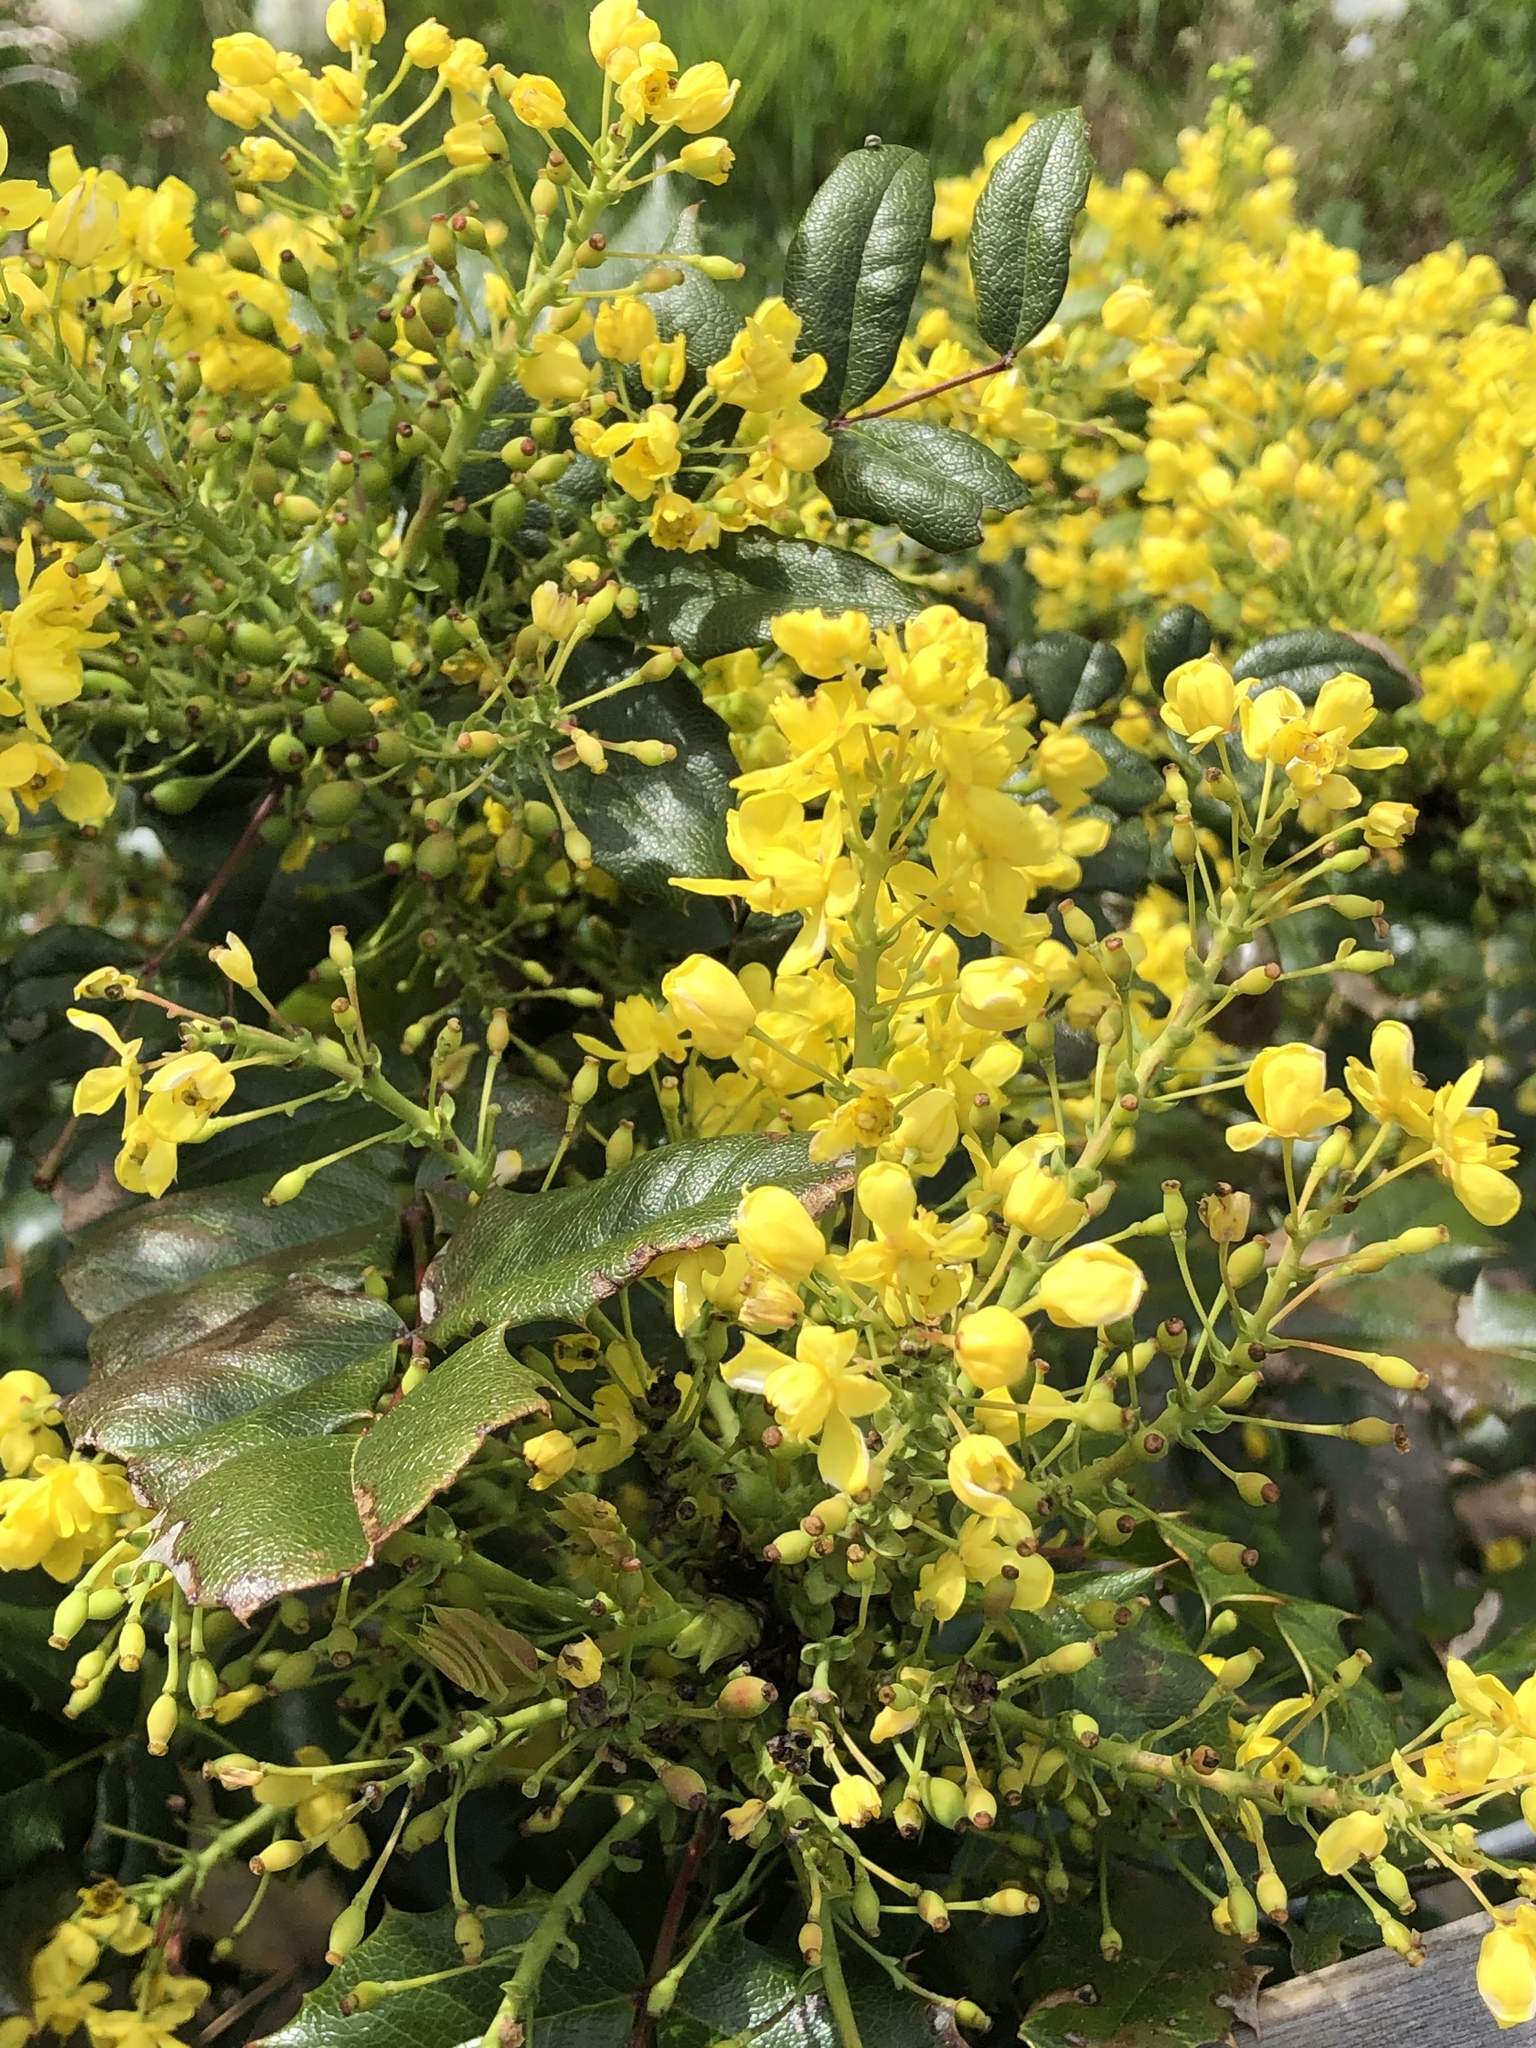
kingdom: Plantae
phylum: Tracheophyta
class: Magnoliopsida
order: Ranunculales
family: Berberidaceae
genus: Mahonia
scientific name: Mahonia aquifolium
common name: Oregon-grape
